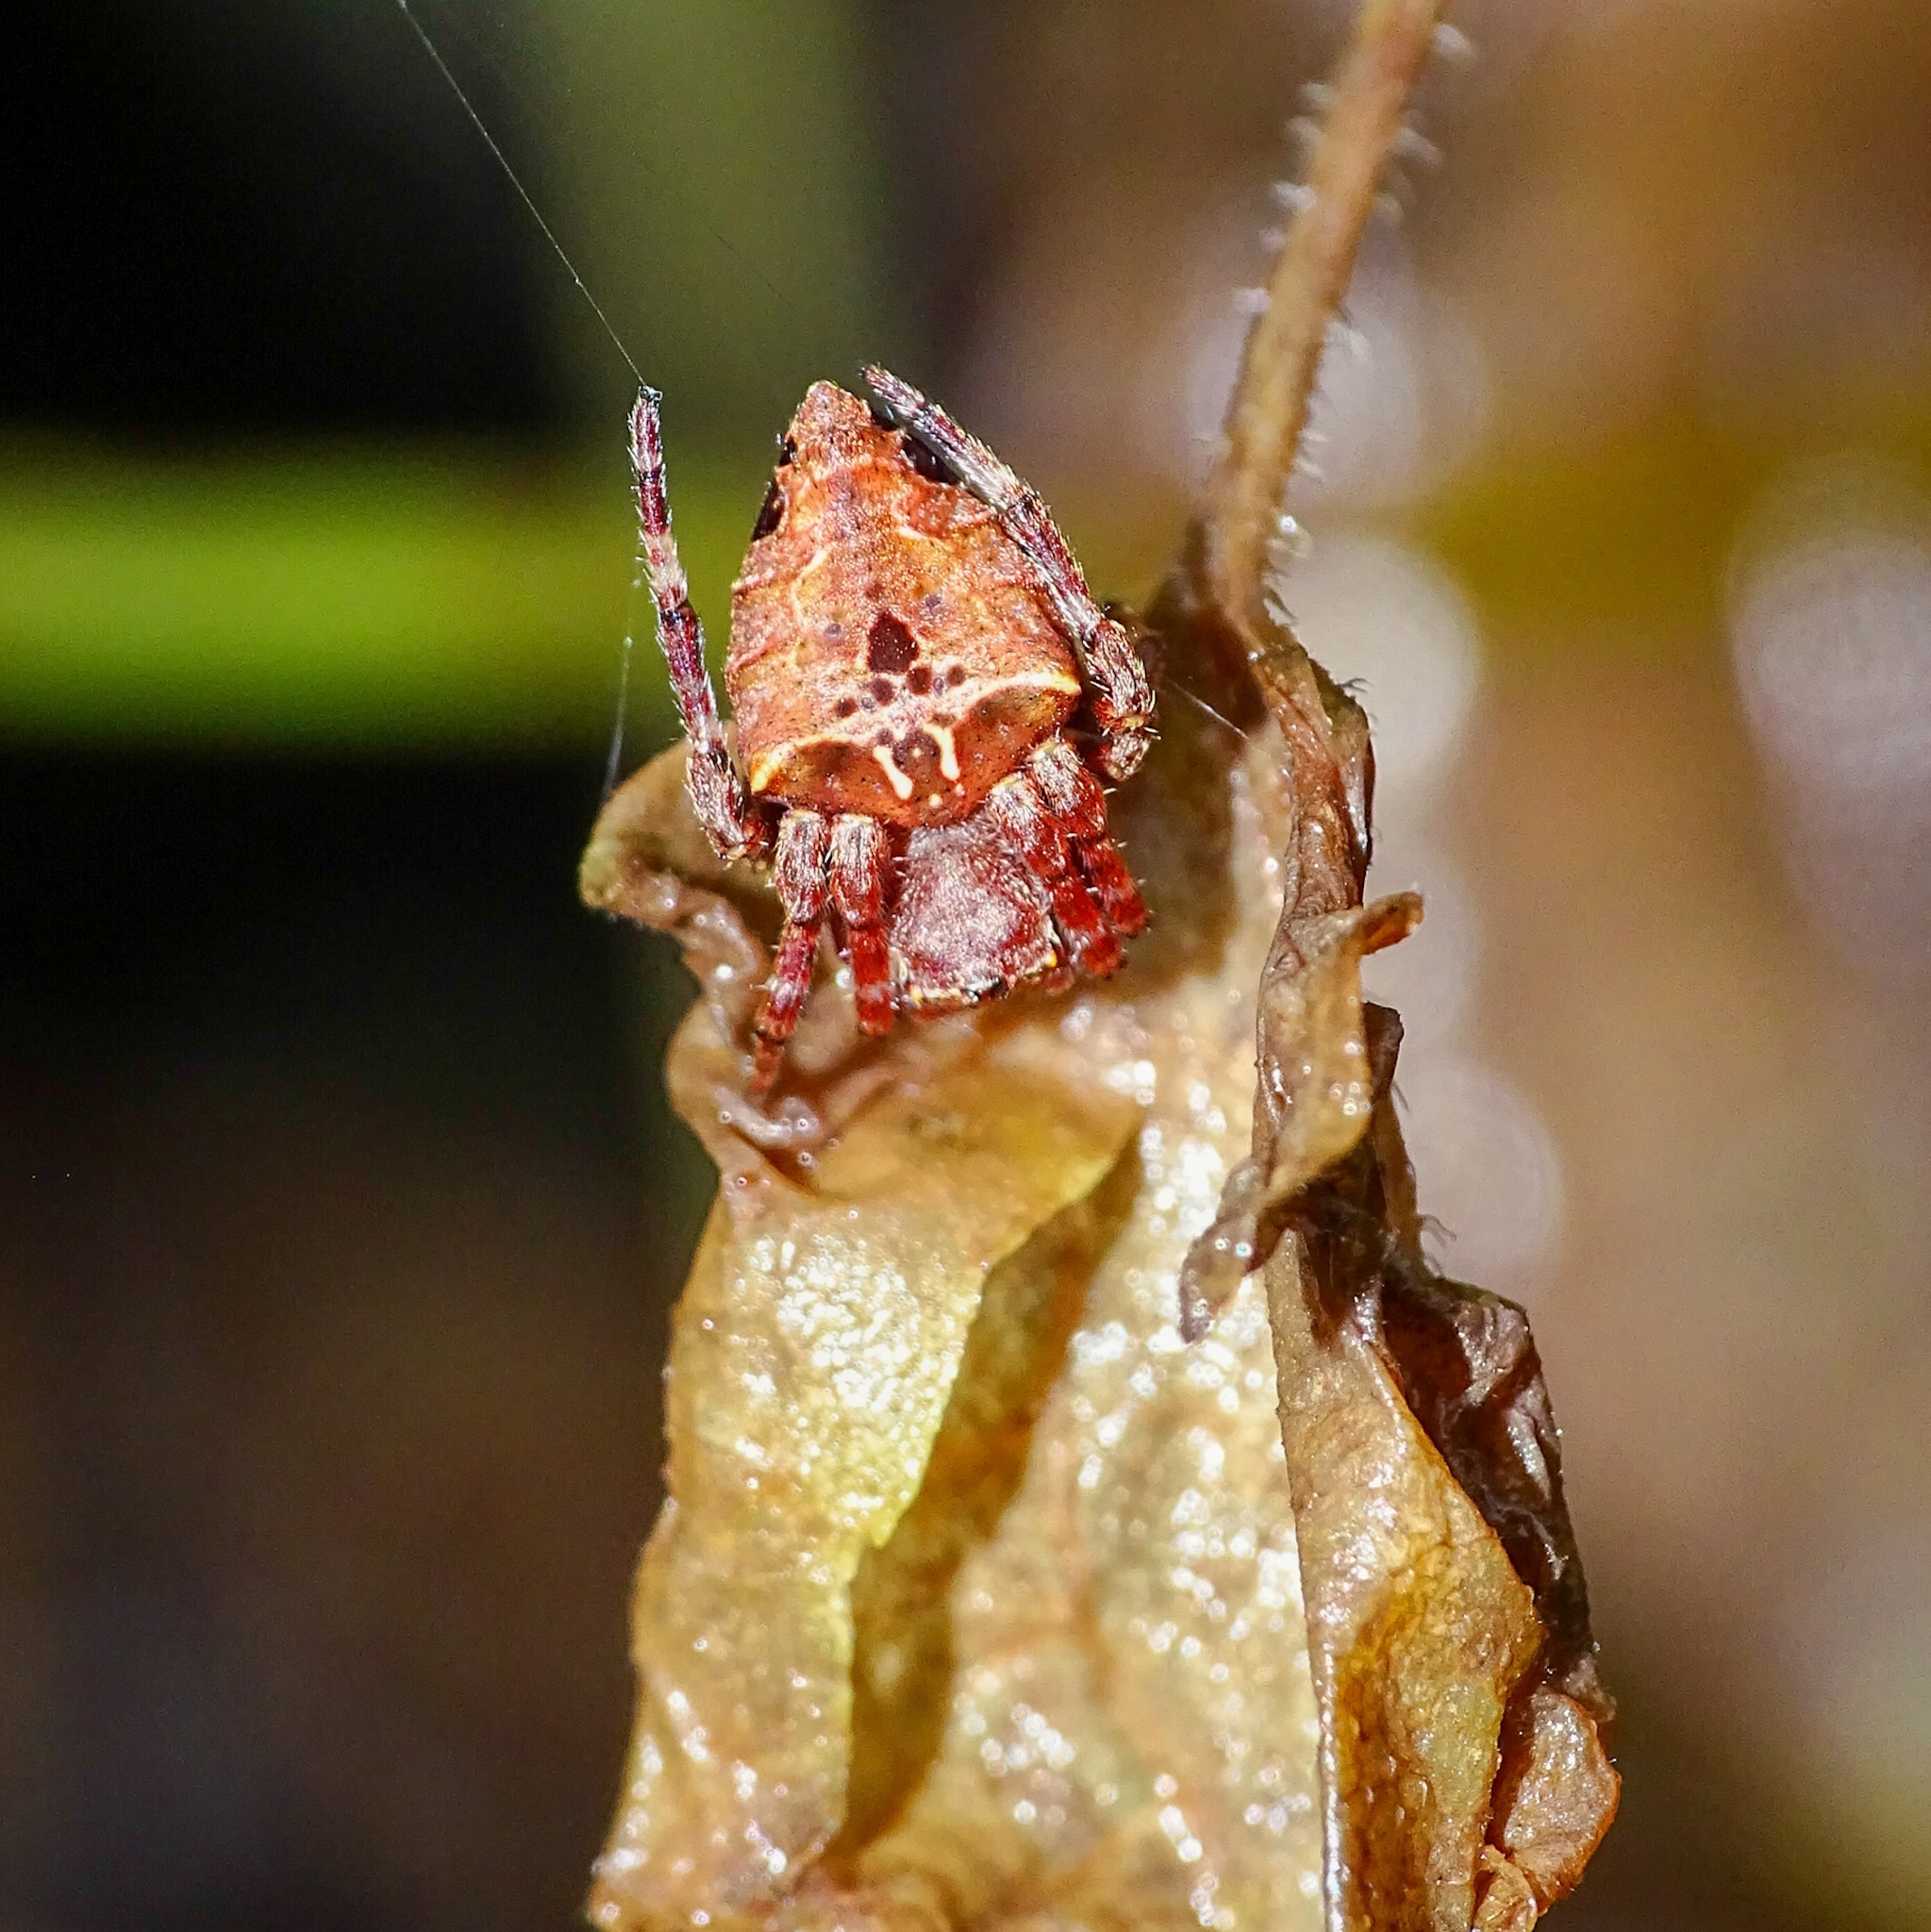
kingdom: Animalia
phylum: Arthropoda
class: Arachnida
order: Araneae
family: Araneidae
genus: Parawixia
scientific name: Parawixia dehaani
